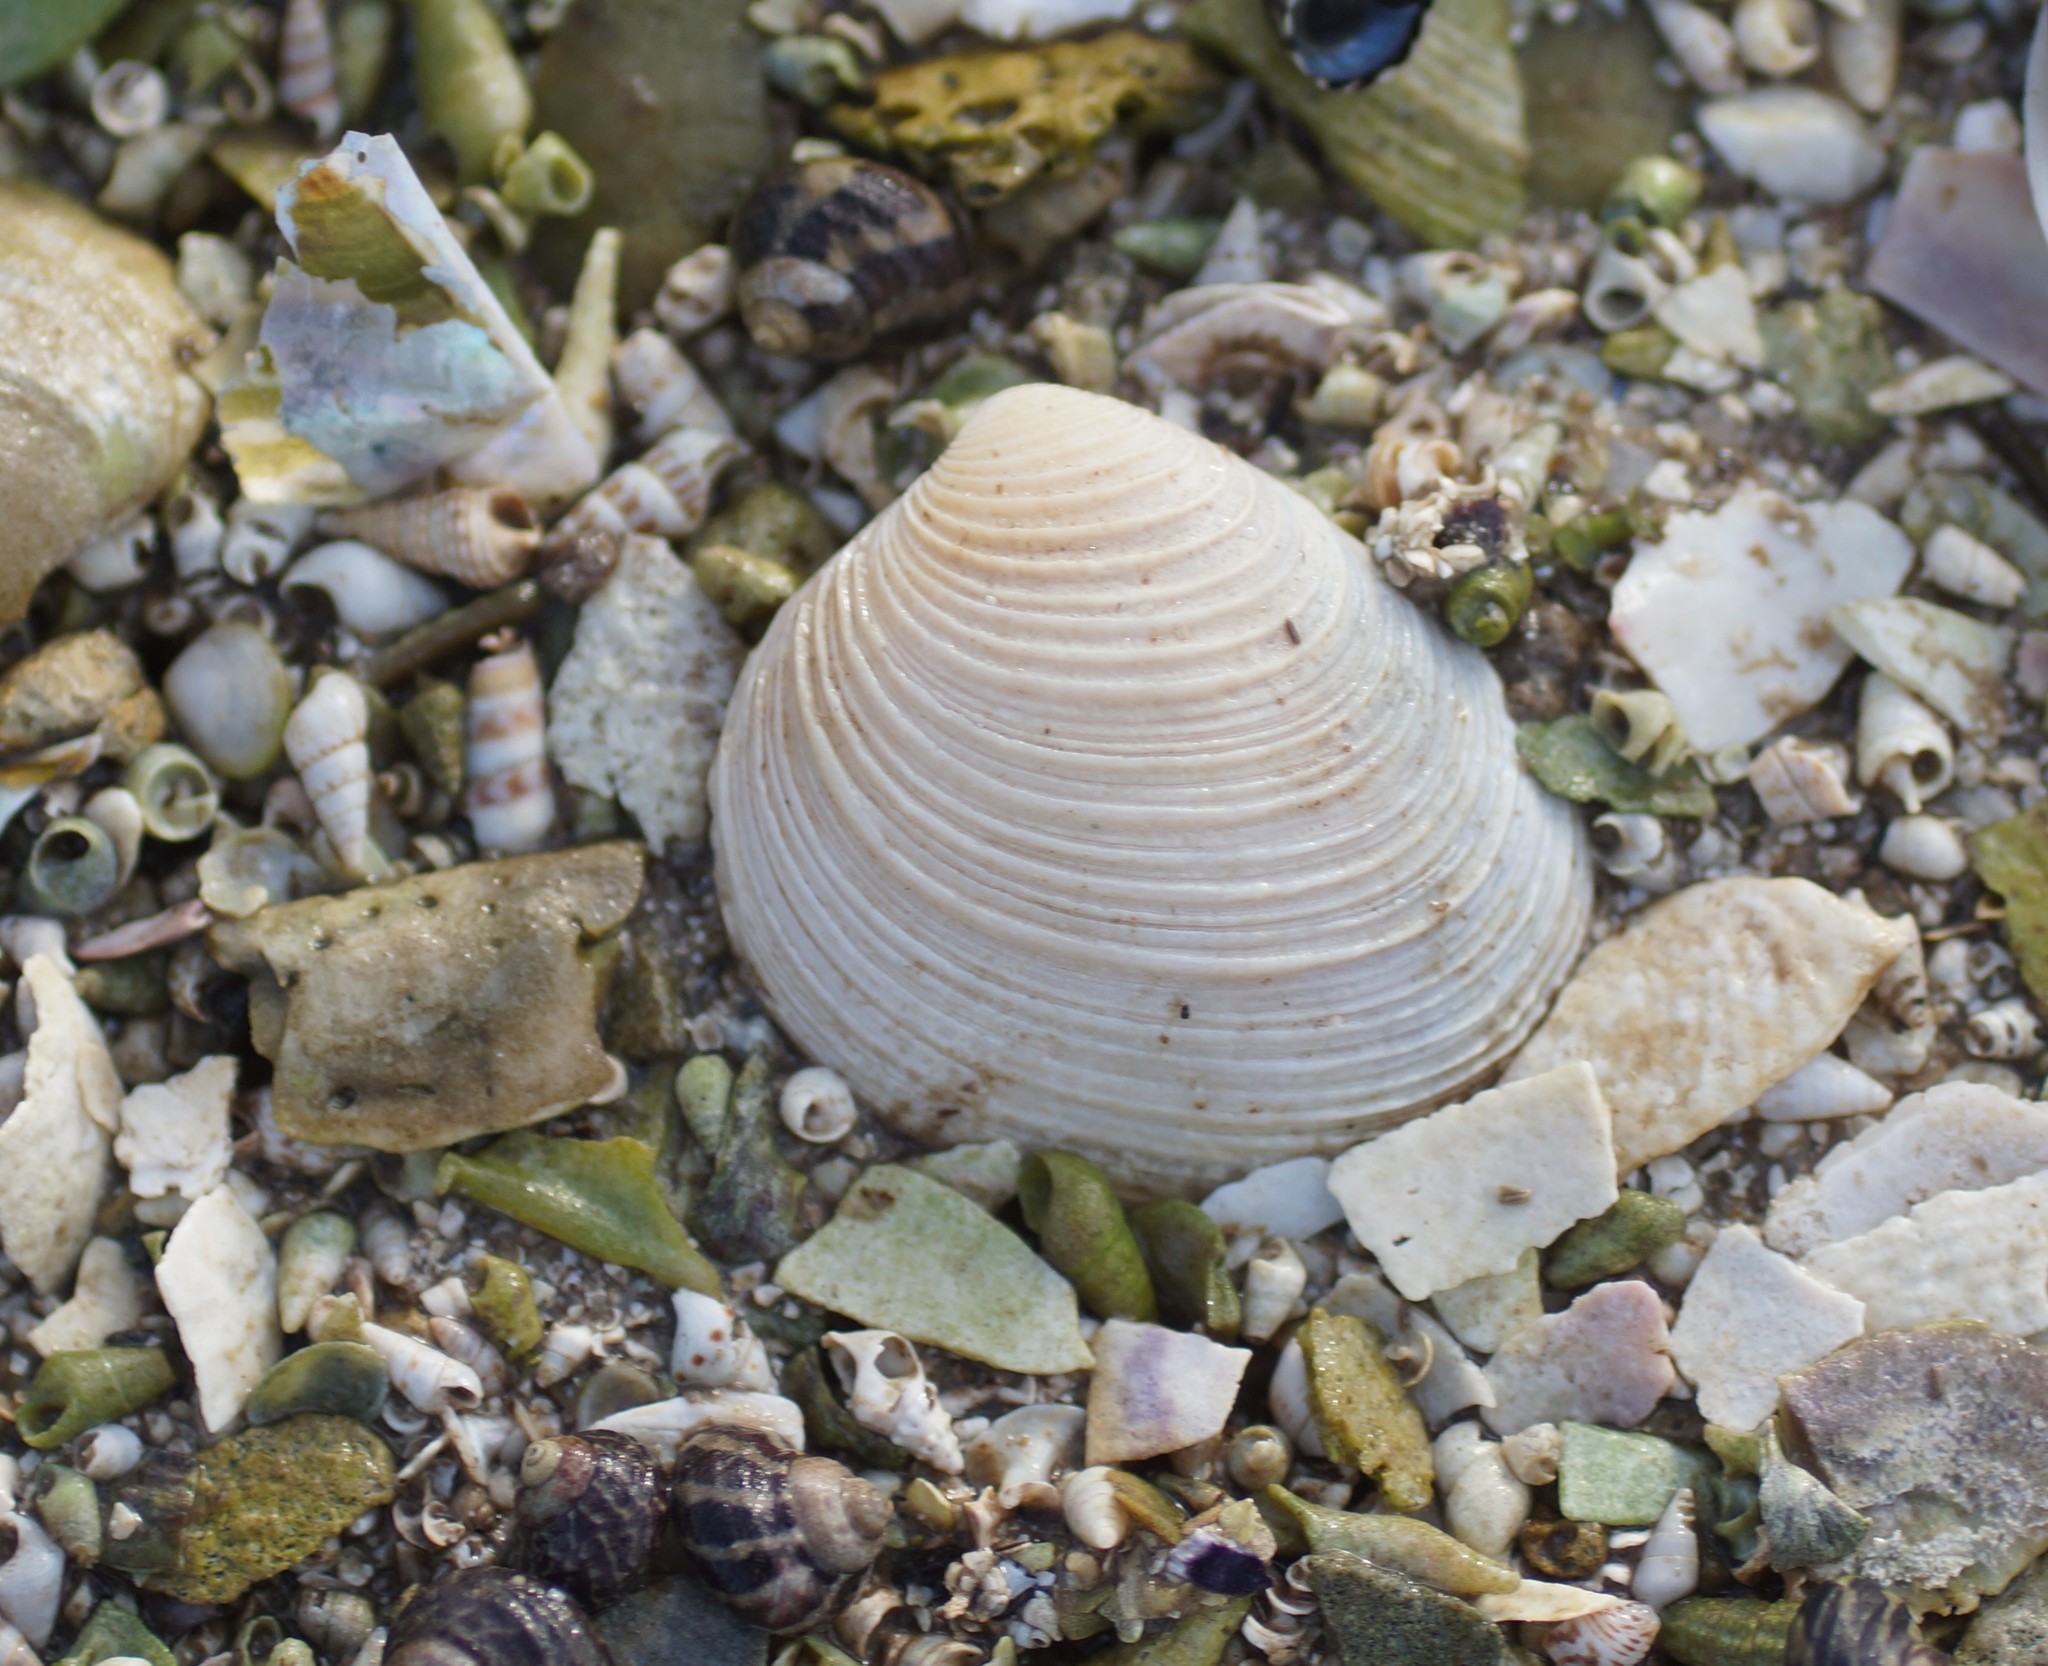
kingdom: Animalia
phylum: Mollusca
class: Bivalvia
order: Venerida
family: Veneridae
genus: Katelysia
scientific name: Katelysia scalarina
